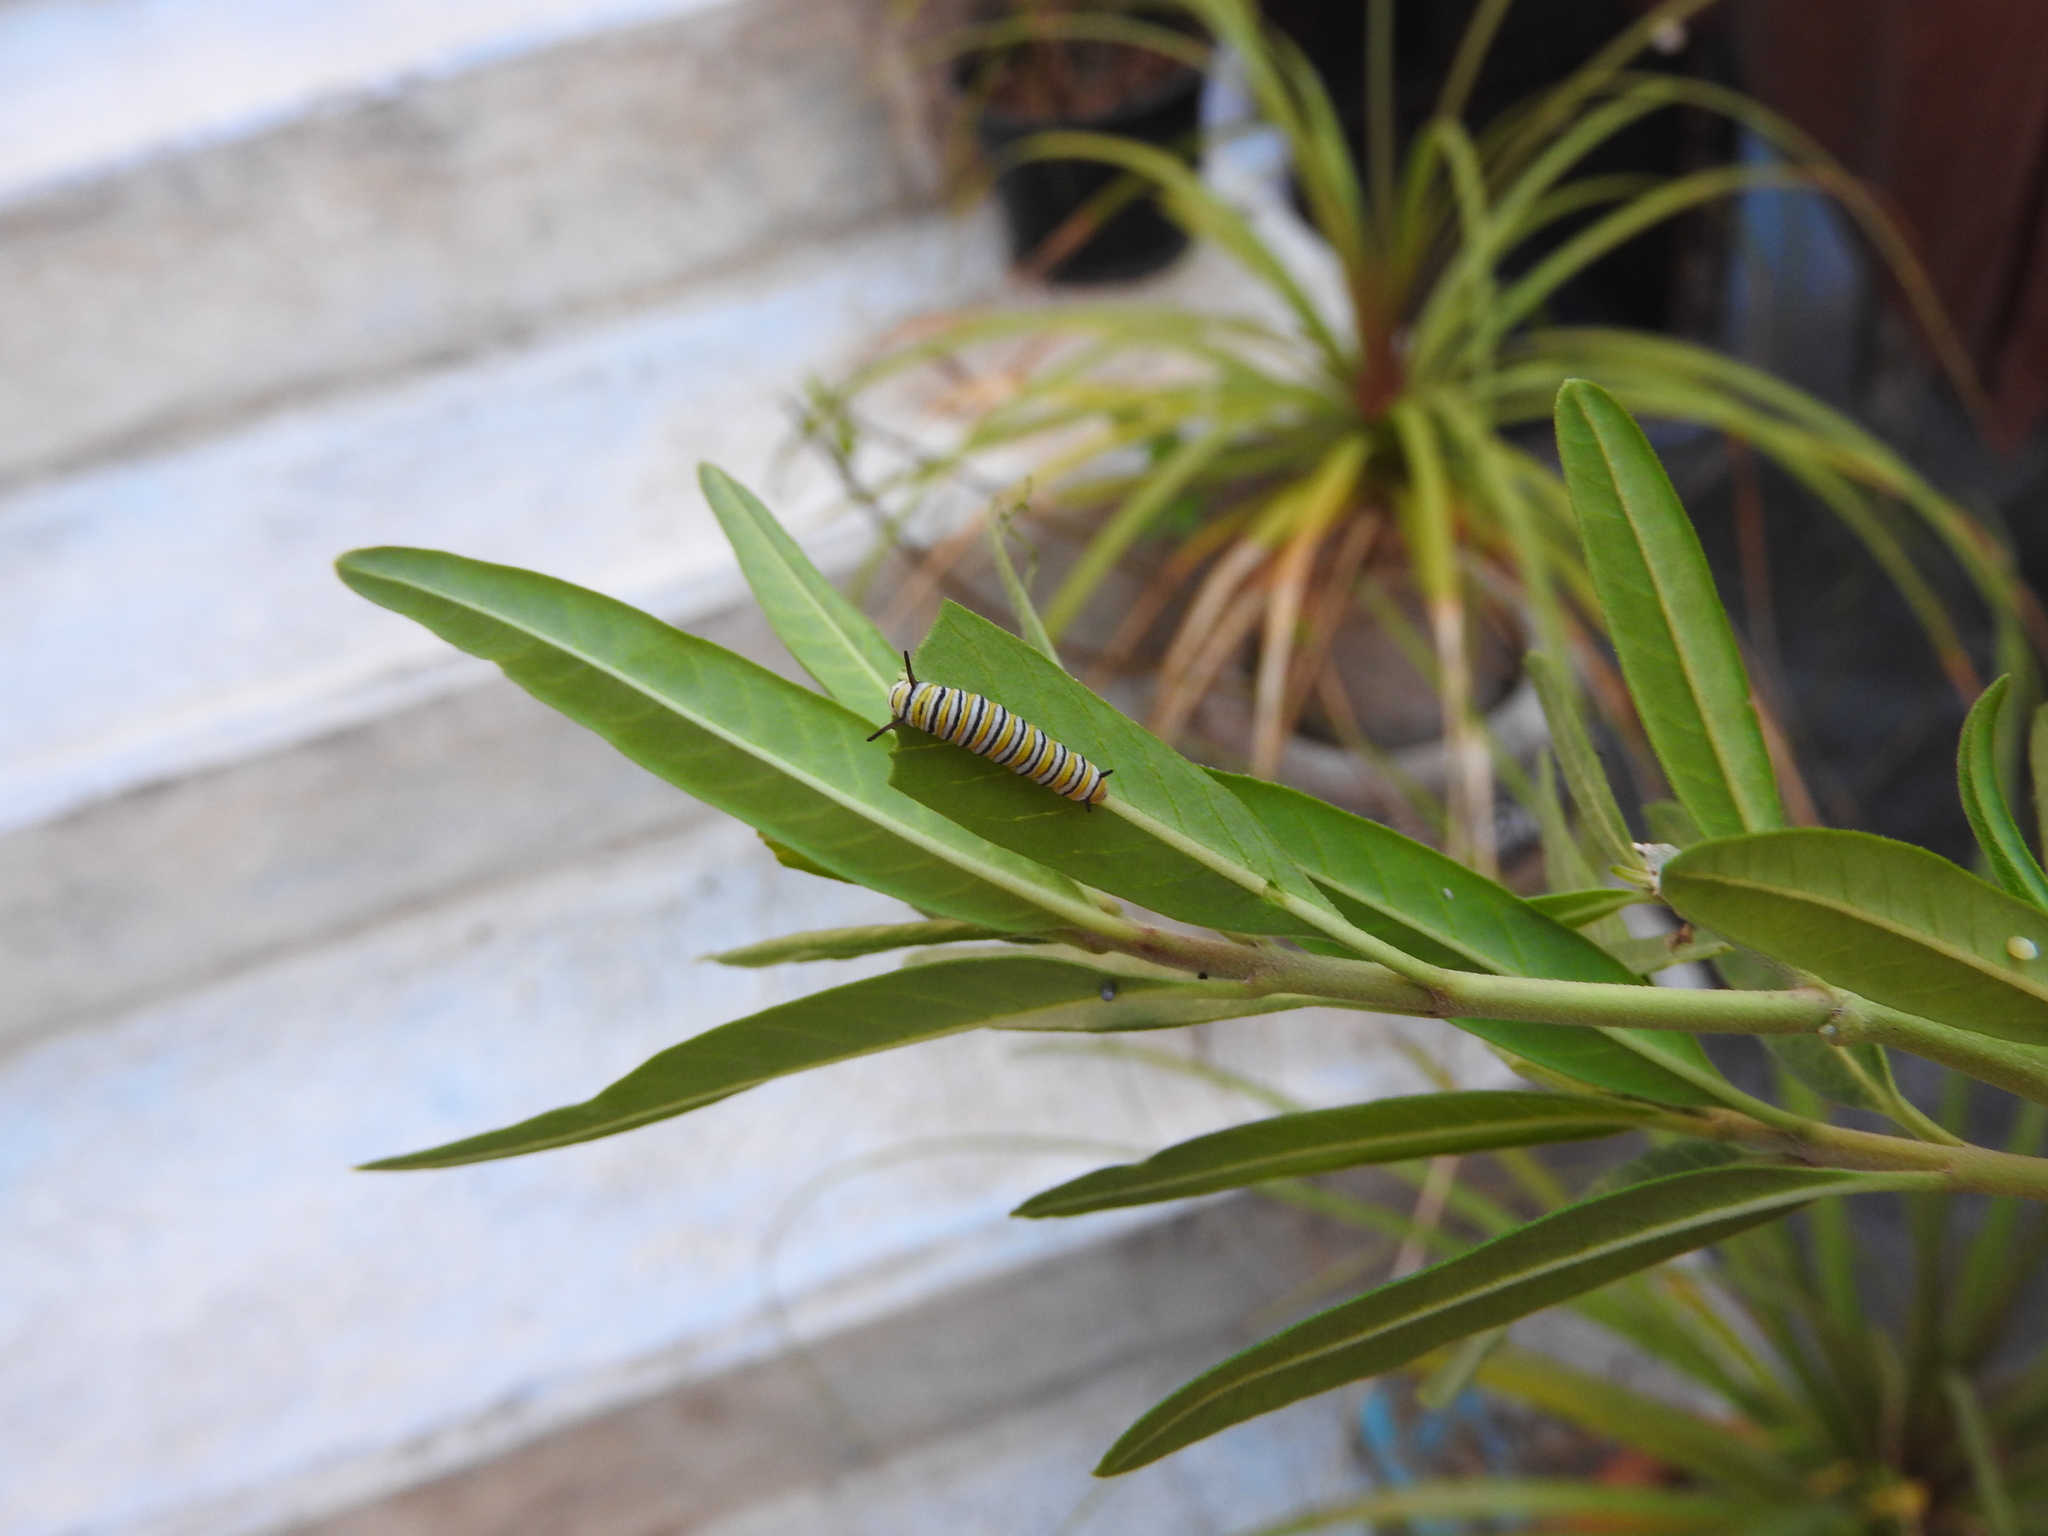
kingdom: Animalia
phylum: Arthropoda
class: Insecta
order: Lepidoptera
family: Nymphalidae
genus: Danaus
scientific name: Danaus plexippus
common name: Monarch
